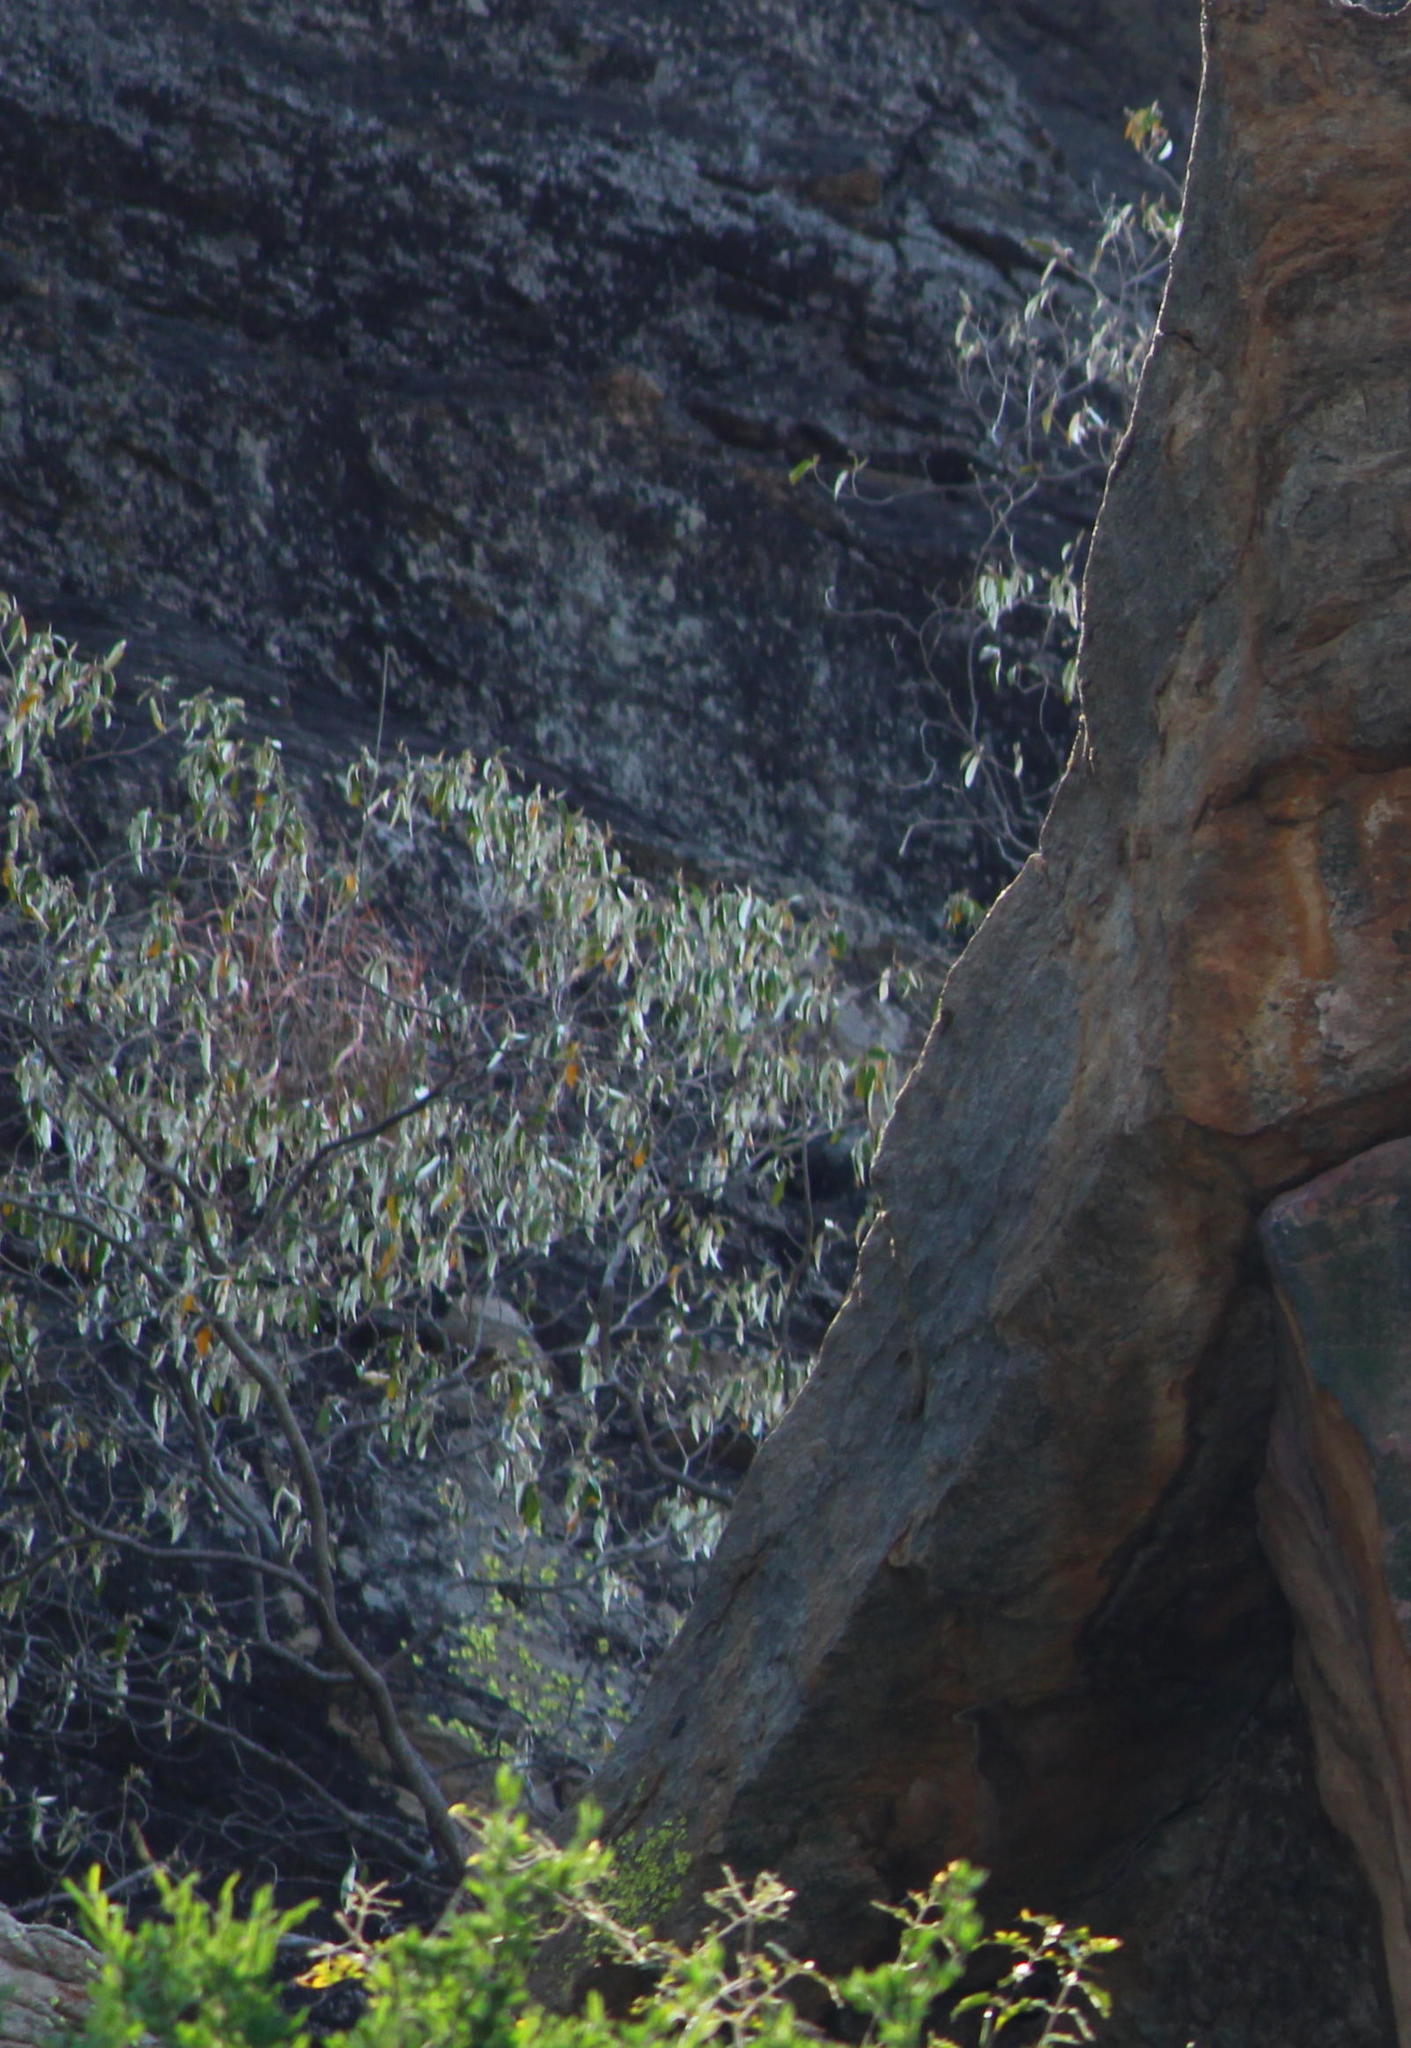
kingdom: Plantae
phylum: Tracheophyta
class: Magnoliopsida
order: Malpighiales
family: Euphorbiaceae
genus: Croton
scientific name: Croton gratissimus
